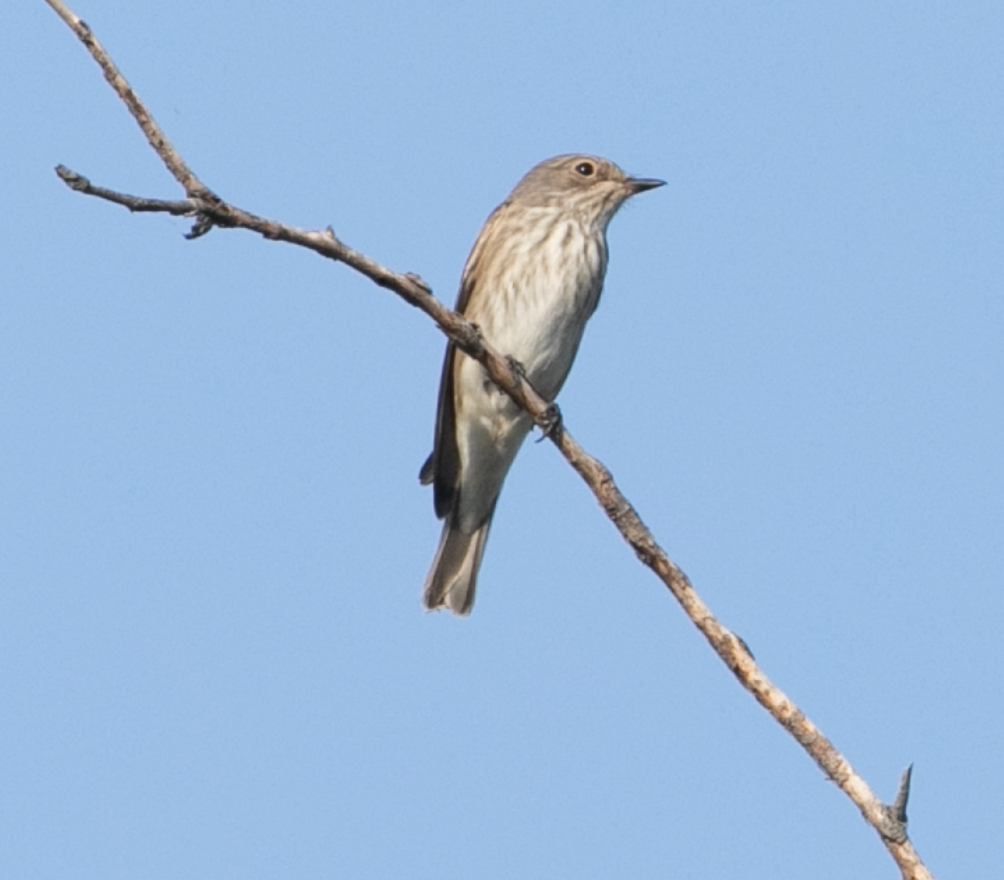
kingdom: Animalia
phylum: Chordata
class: Aves
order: Passeriformes
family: Muscicapidae
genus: Muscicapa
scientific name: Muscicapa striata
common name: Spotted flycatcher
